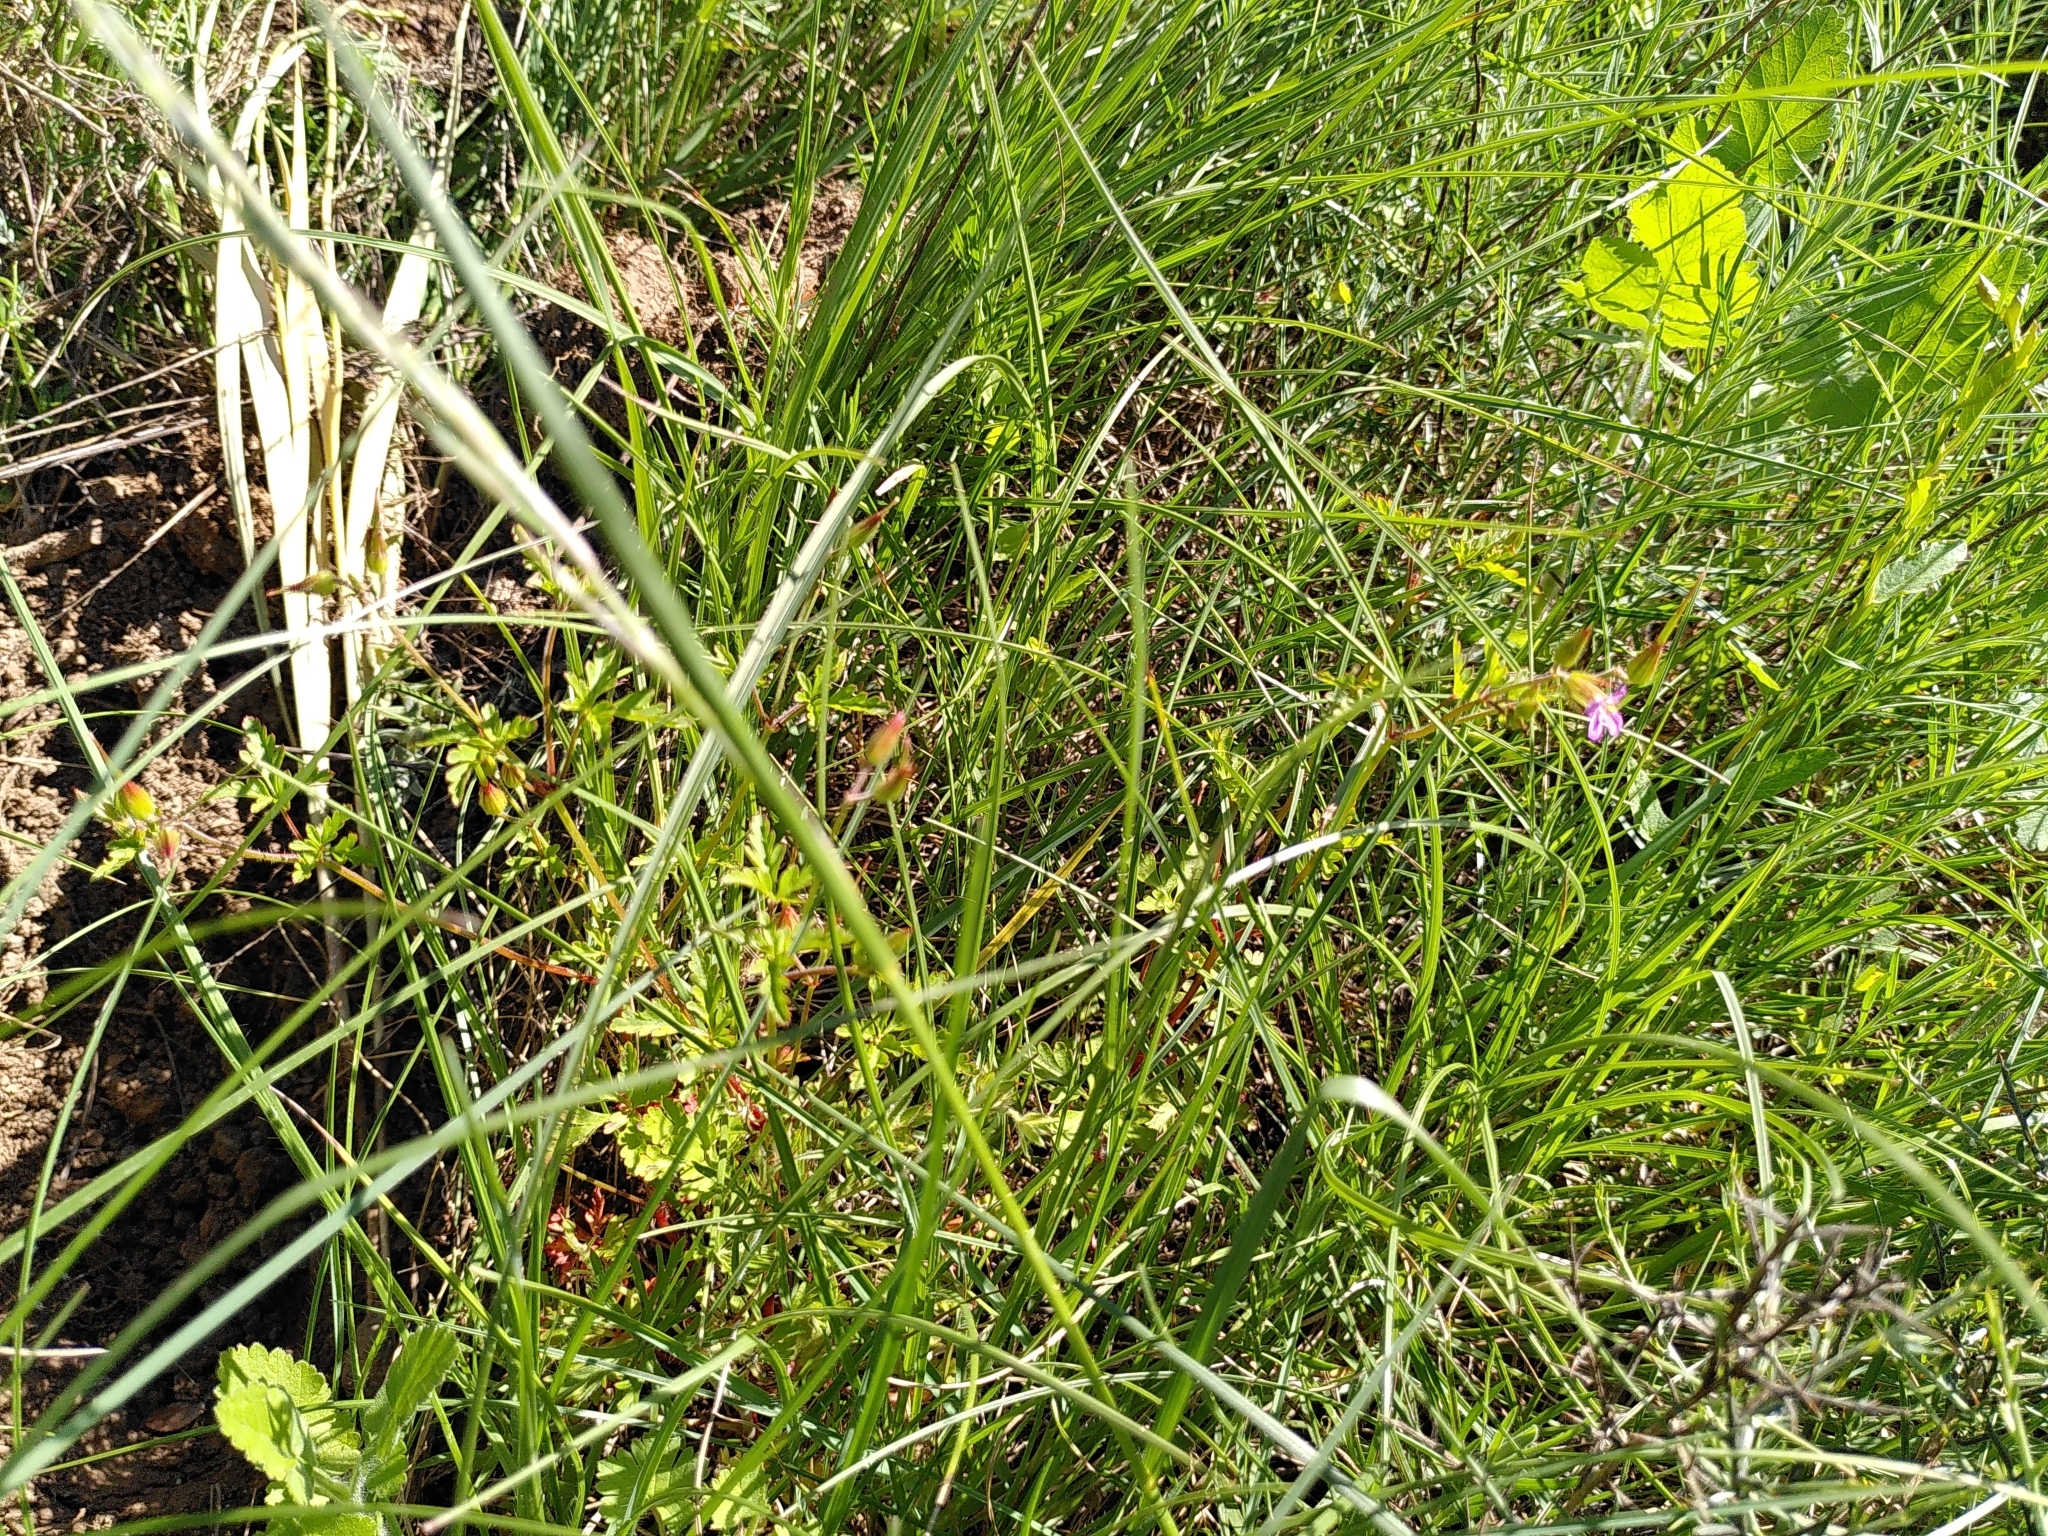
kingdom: Plantae
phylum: Tracheophyta
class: Magnoliopsida
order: Geraniales
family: Geraniaceae
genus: Geranium
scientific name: Geranium purpureum
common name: Little-robin
